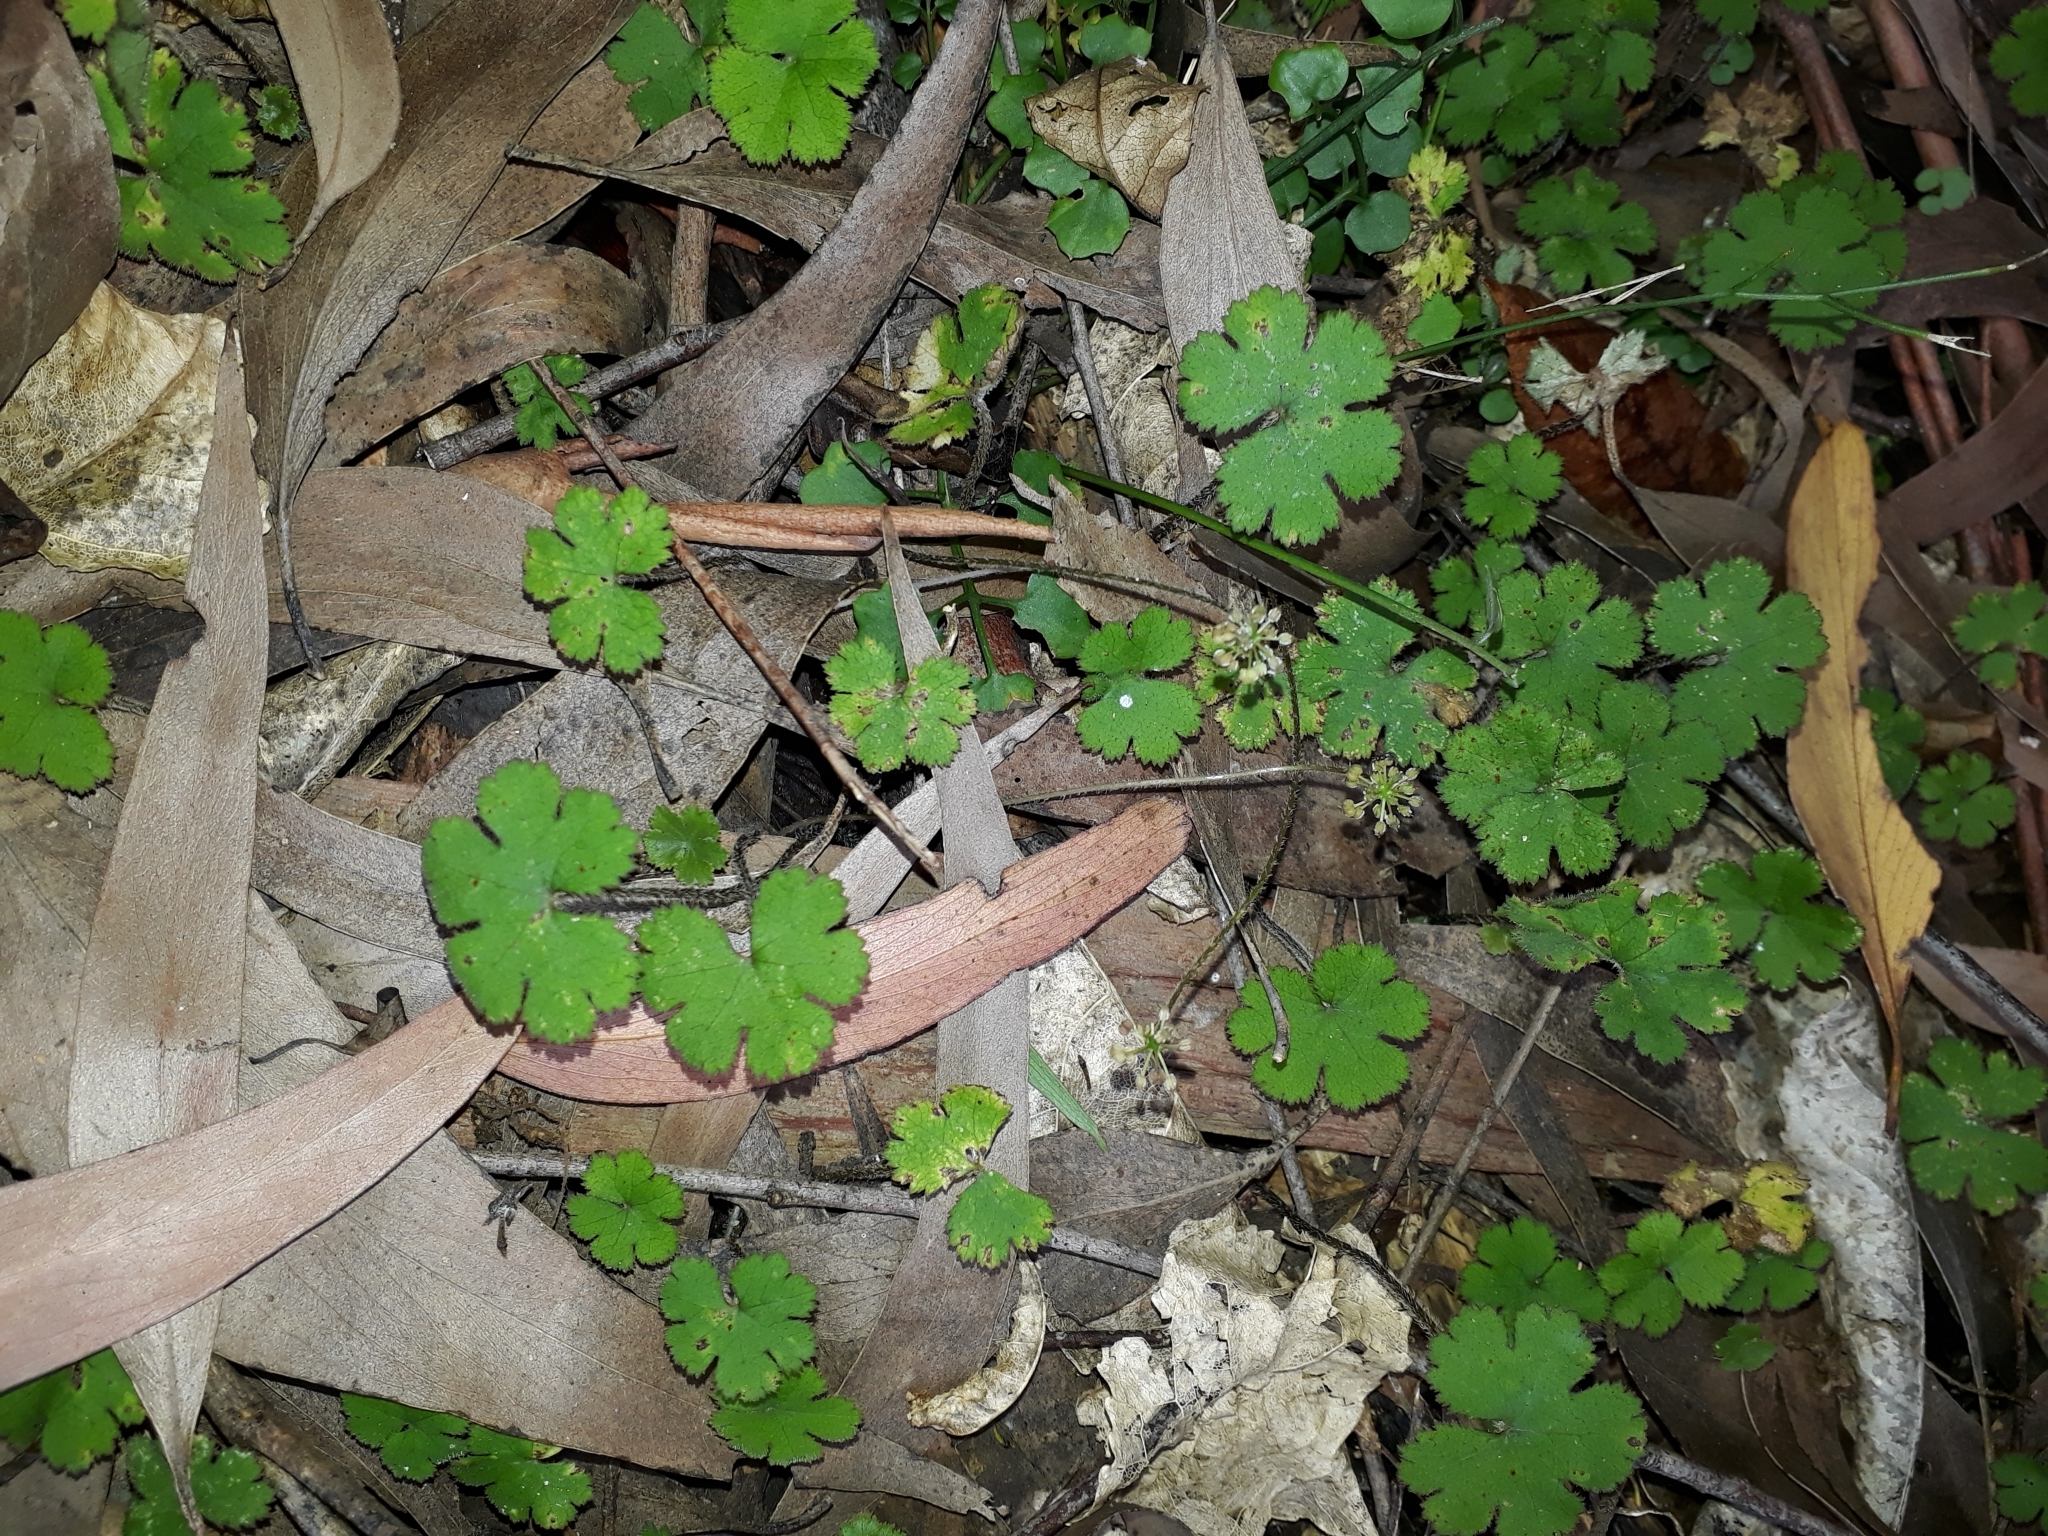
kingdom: Plantae
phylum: Tracheophyta
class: Magnoliopsida
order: Apiales
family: Araliaceae
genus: Hydrocotyle
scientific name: Hydrocotyle elongata
